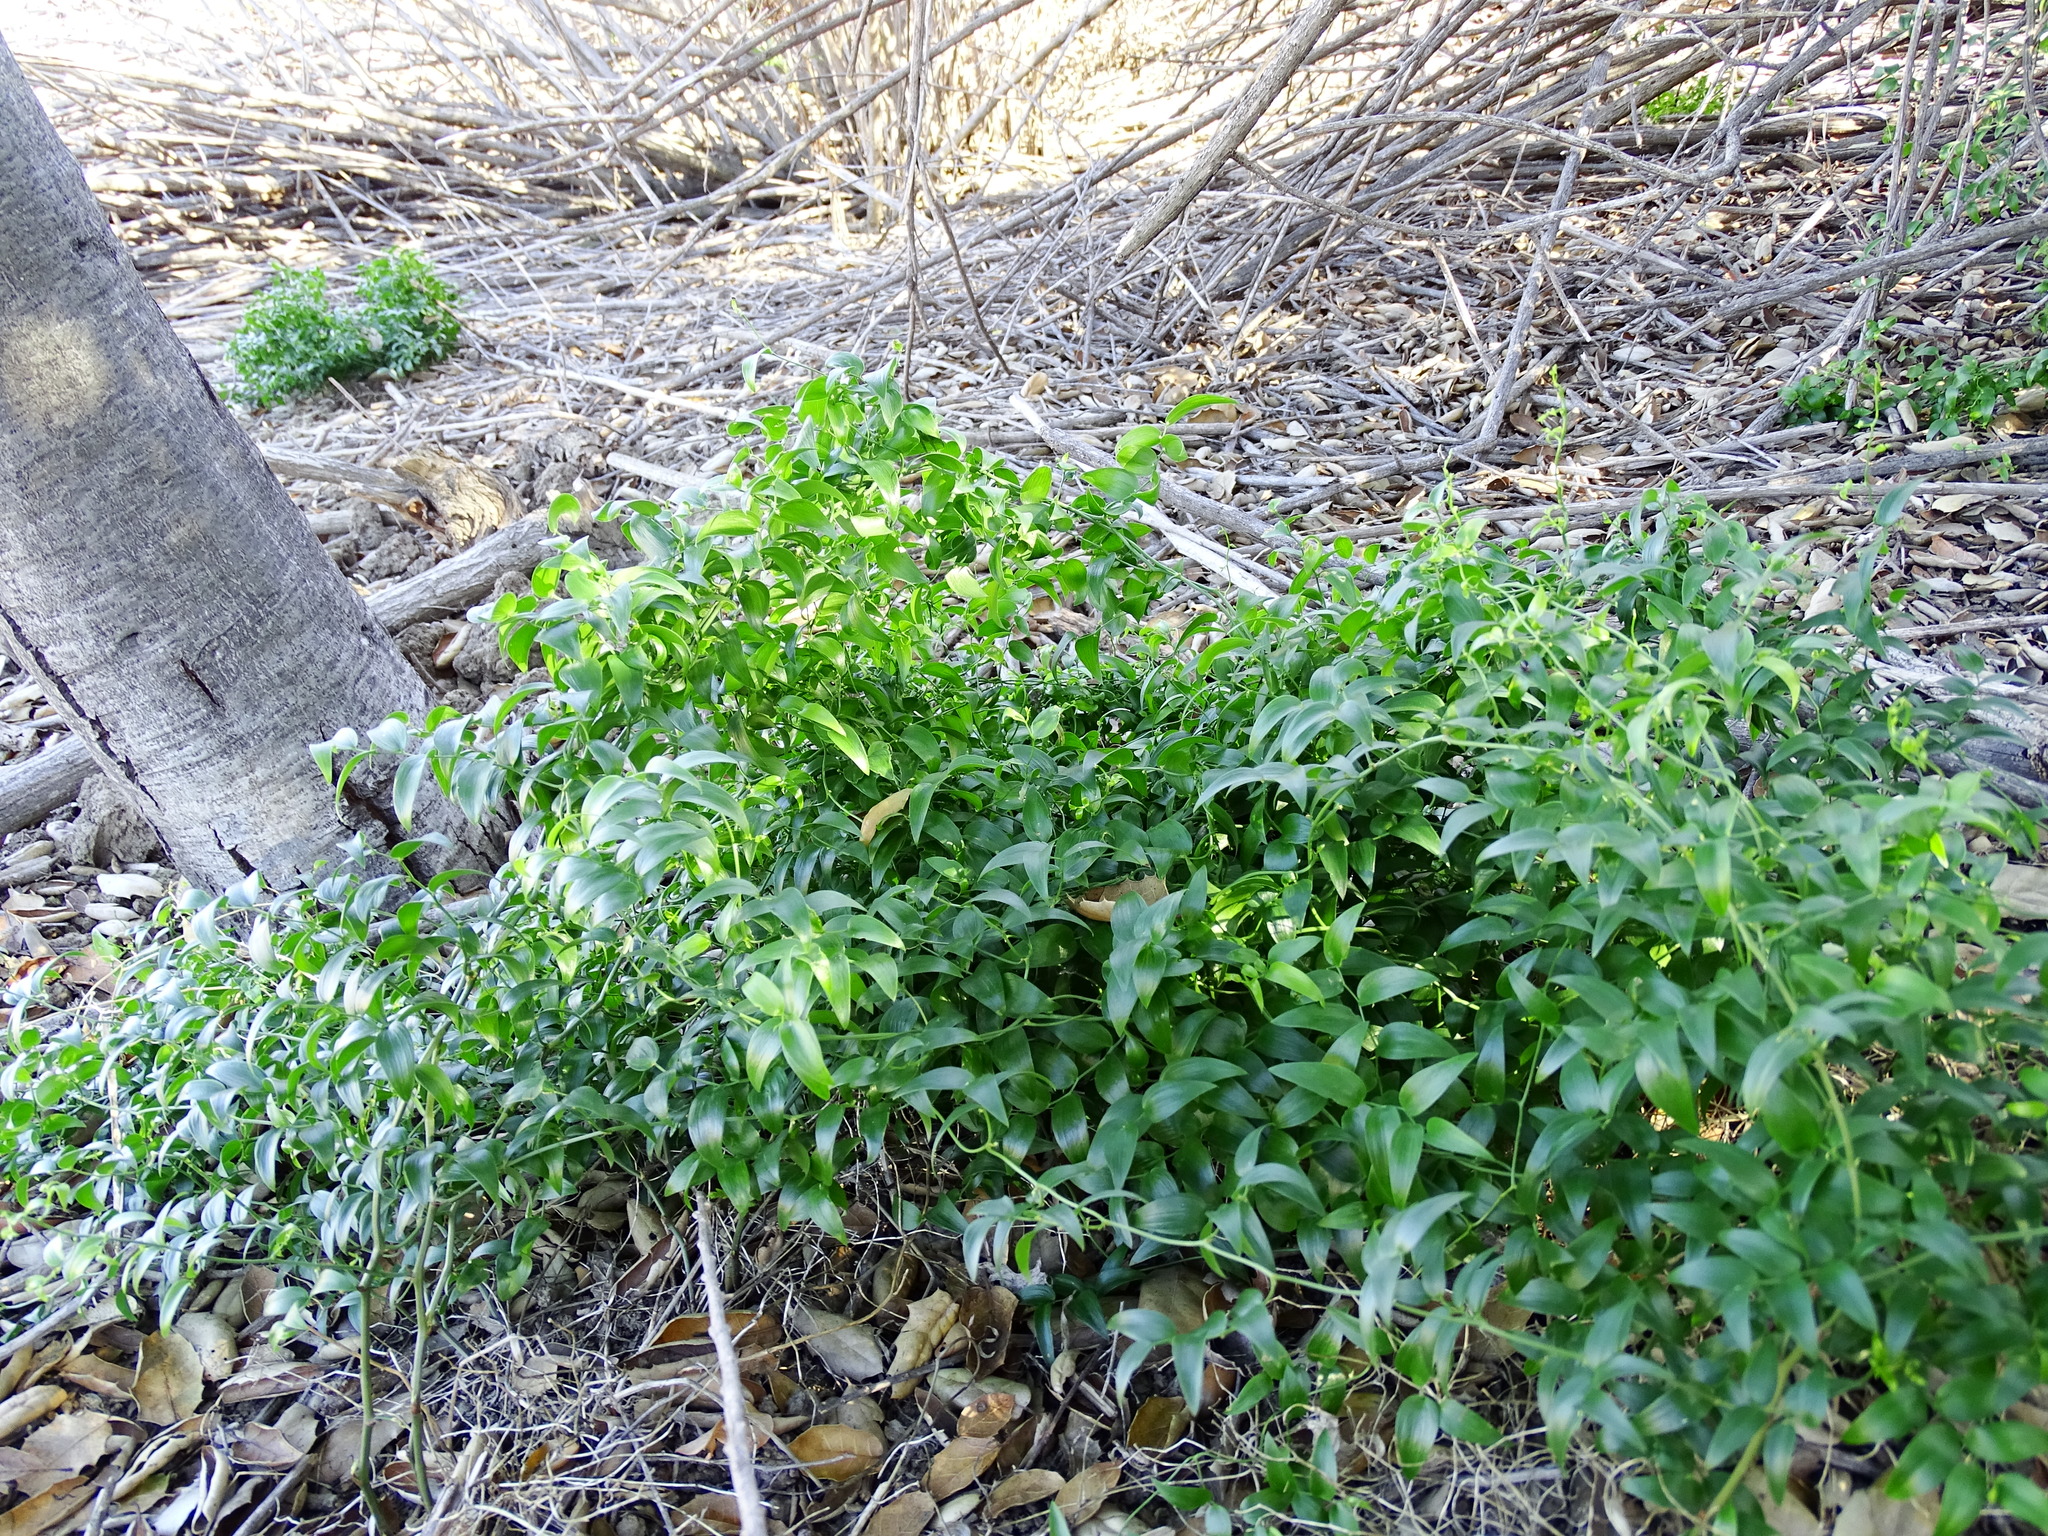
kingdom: Plantae
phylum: Tracheophyta
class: Liliopsida
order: Asparagales
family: Asparagaceae
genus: Asparagus
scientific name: Asparagus asparagoides
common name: African asparagus fern
